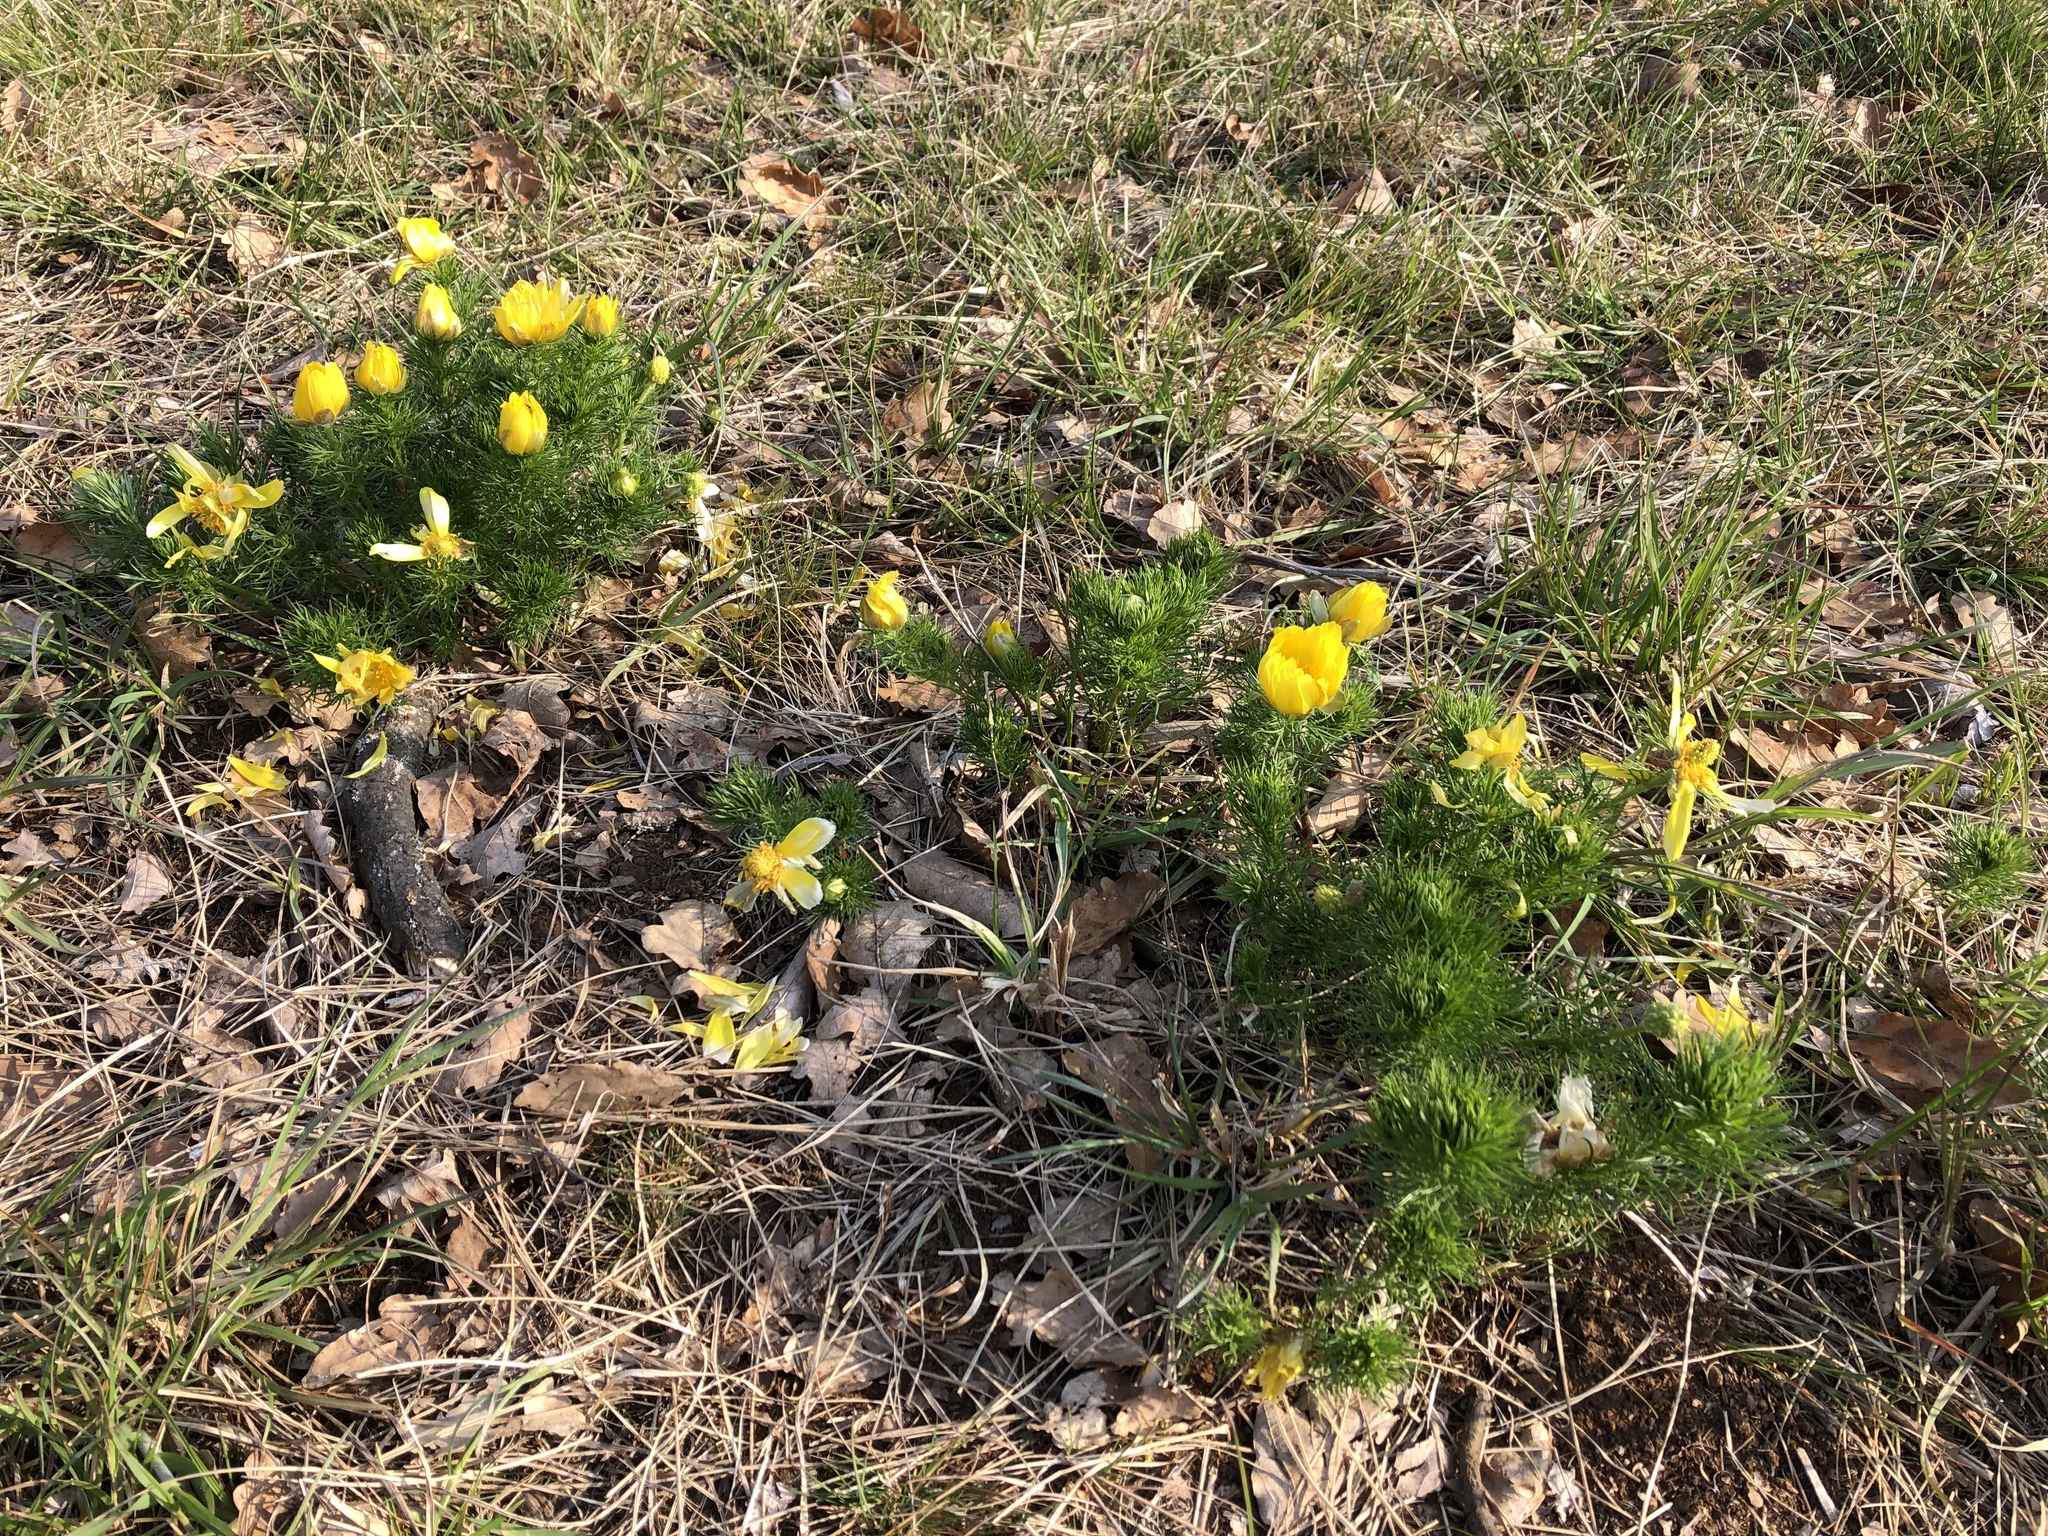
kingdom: Plantae
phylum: Tracheophyta
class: Magnoliopsida
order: Ranunculales
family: Ranunculaceae
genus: Adonis
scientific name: Adonis vernalis
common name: Yellow pheasants-eye
